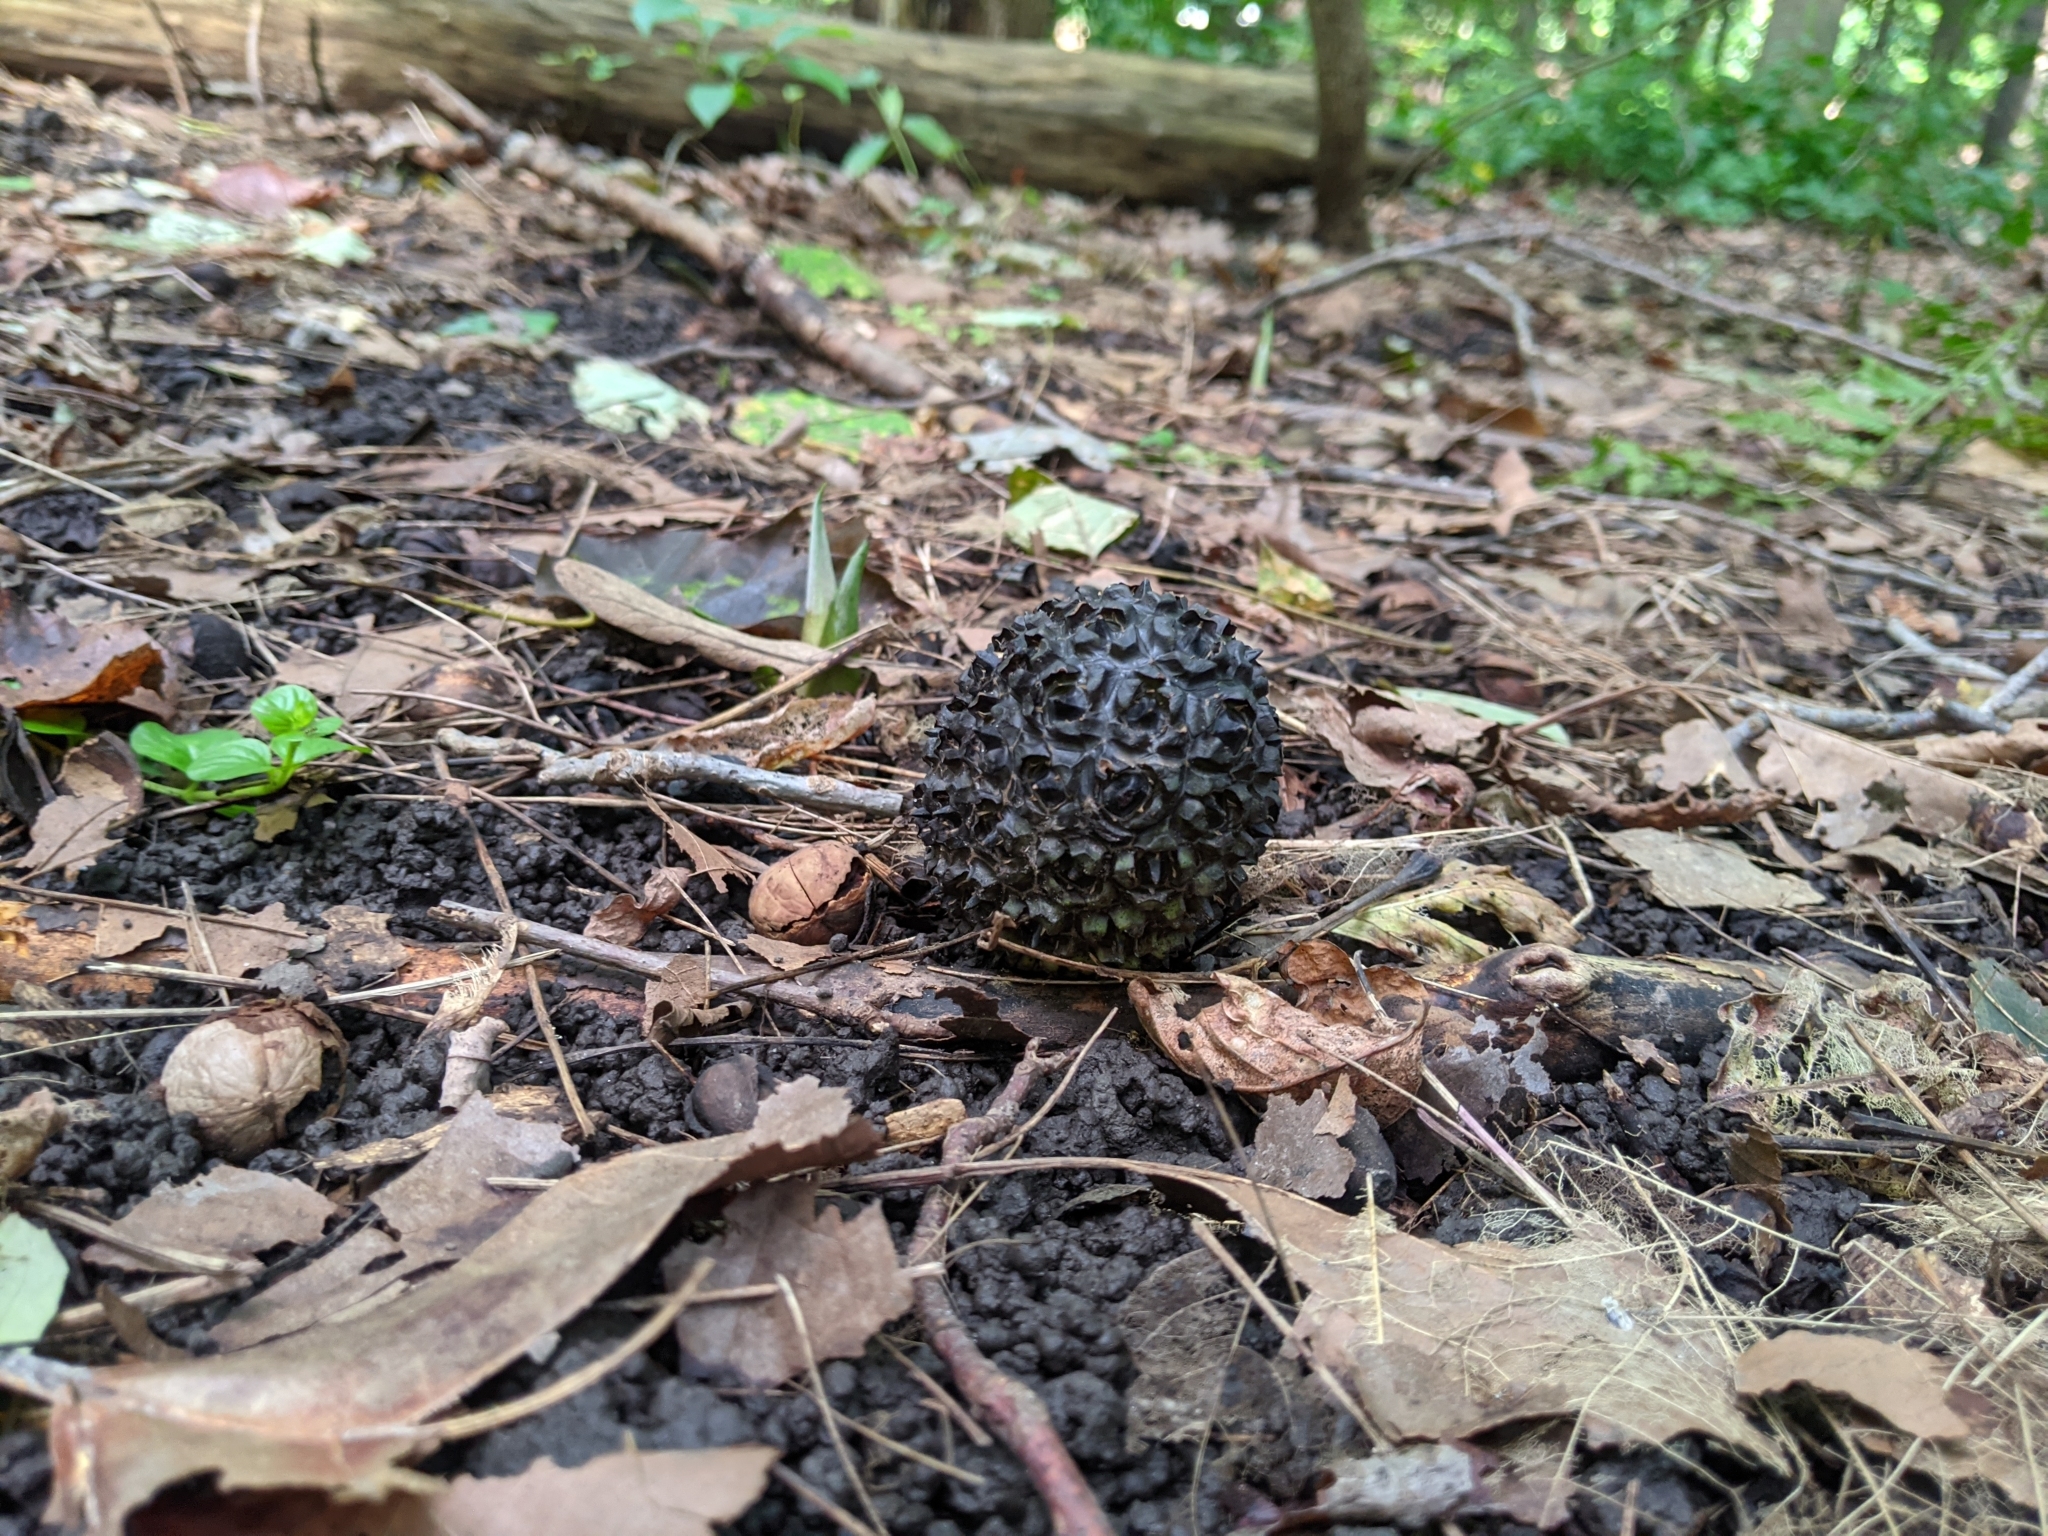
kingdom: Plantae
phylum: Tracheophyta
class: Liliopsida
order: Alismatales
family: Araceae
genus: Symplocarpus
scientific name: Symplocarpus foetidus
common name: Eastern skunk cabbage
